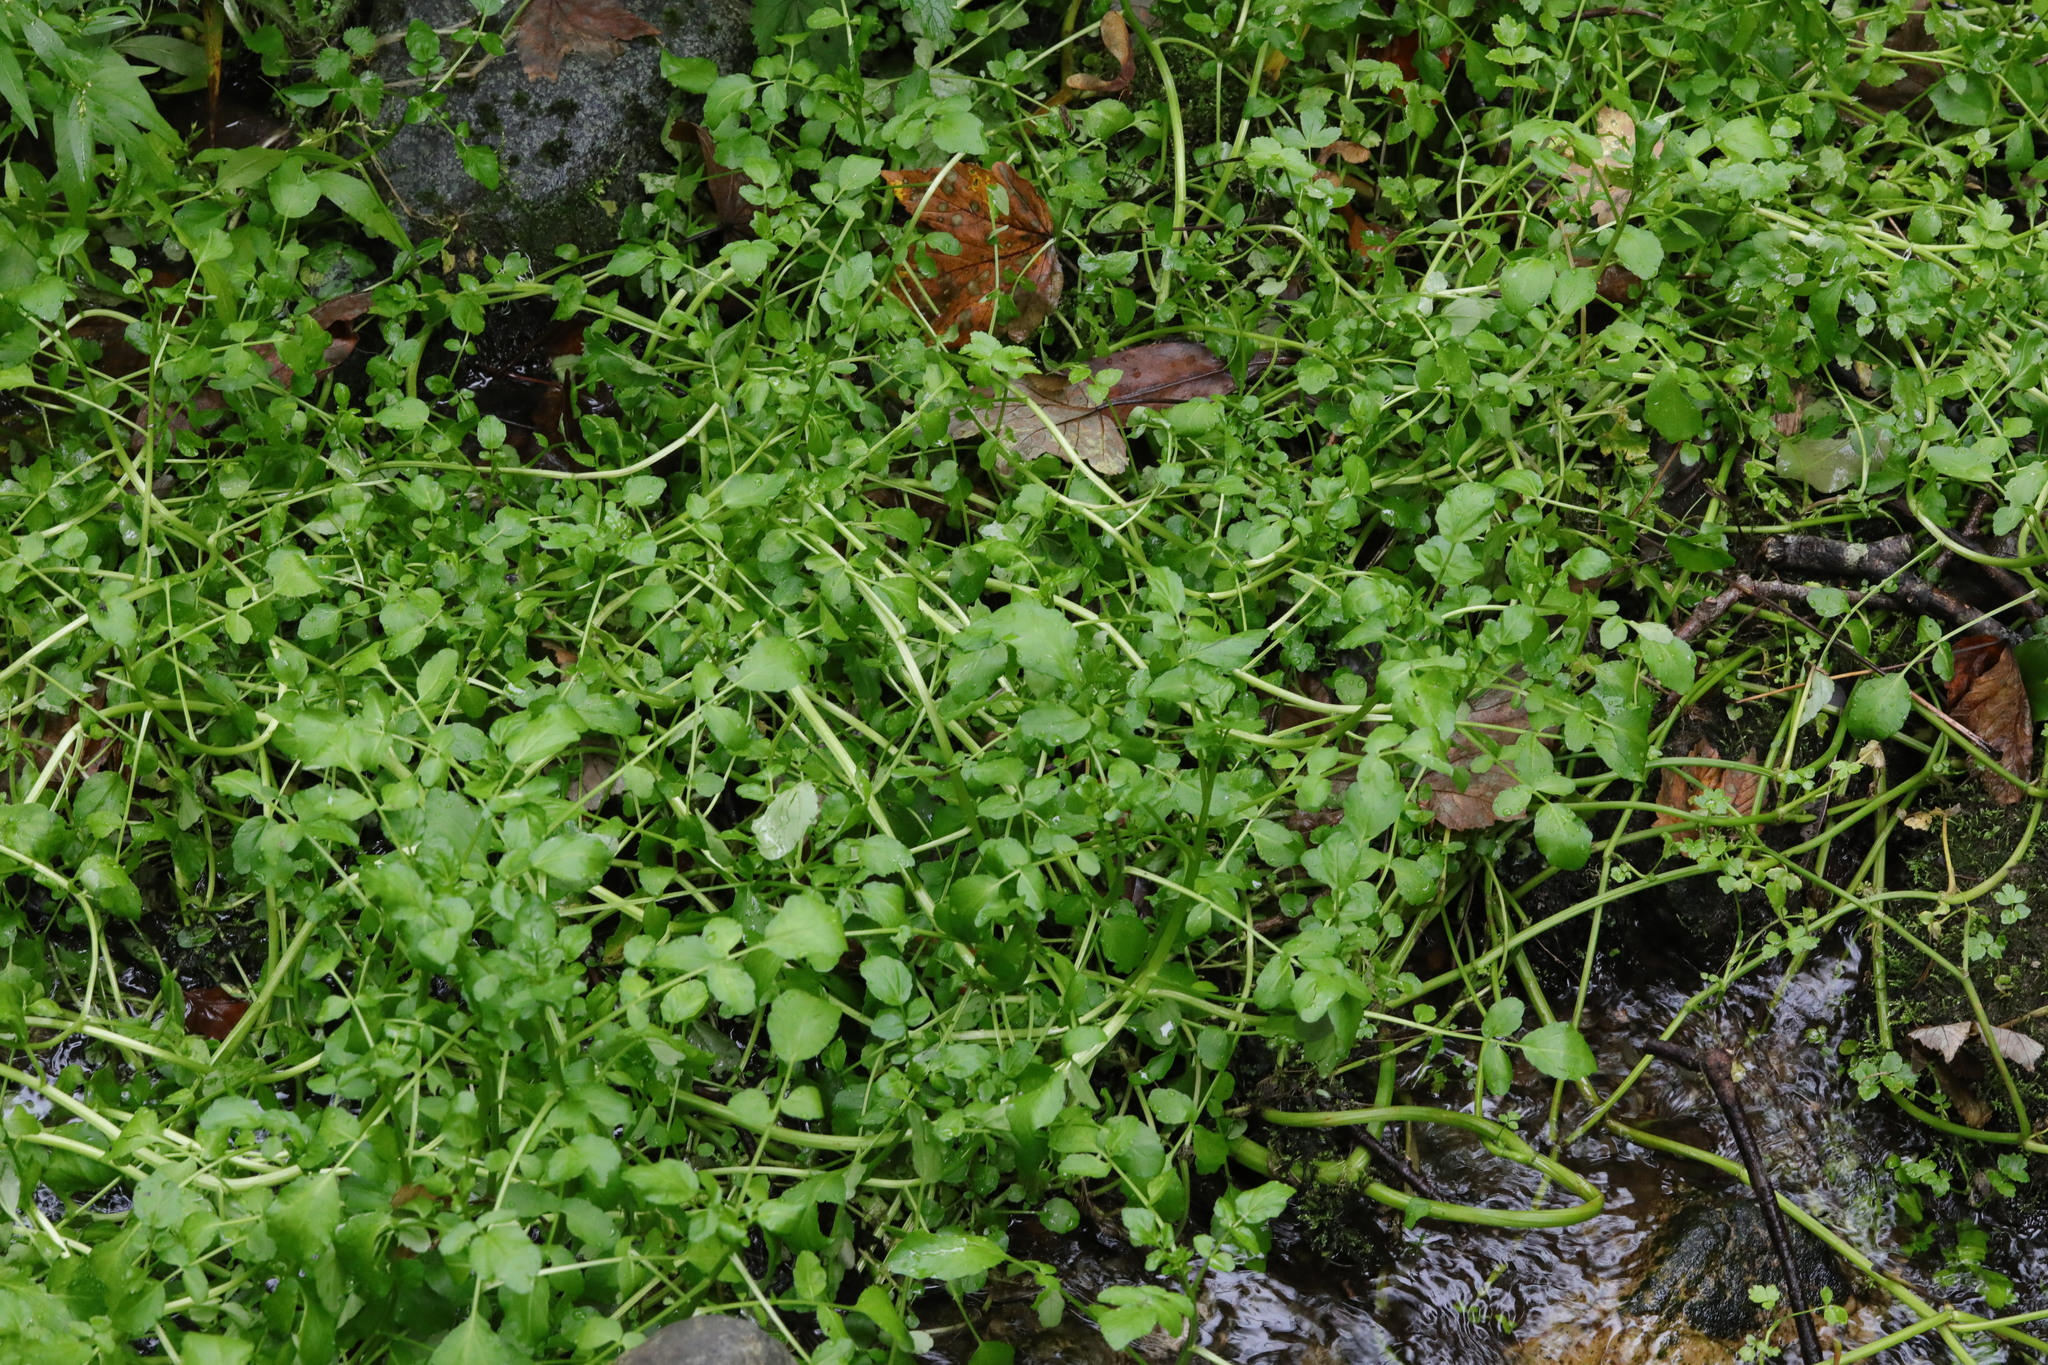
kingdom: Plantae
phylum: Tracheophyta
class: Magnoliopsida
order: Brassicales
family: Brassicaceae
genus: Nasturtium
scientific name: Nasturtium officinale
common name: Watercress
